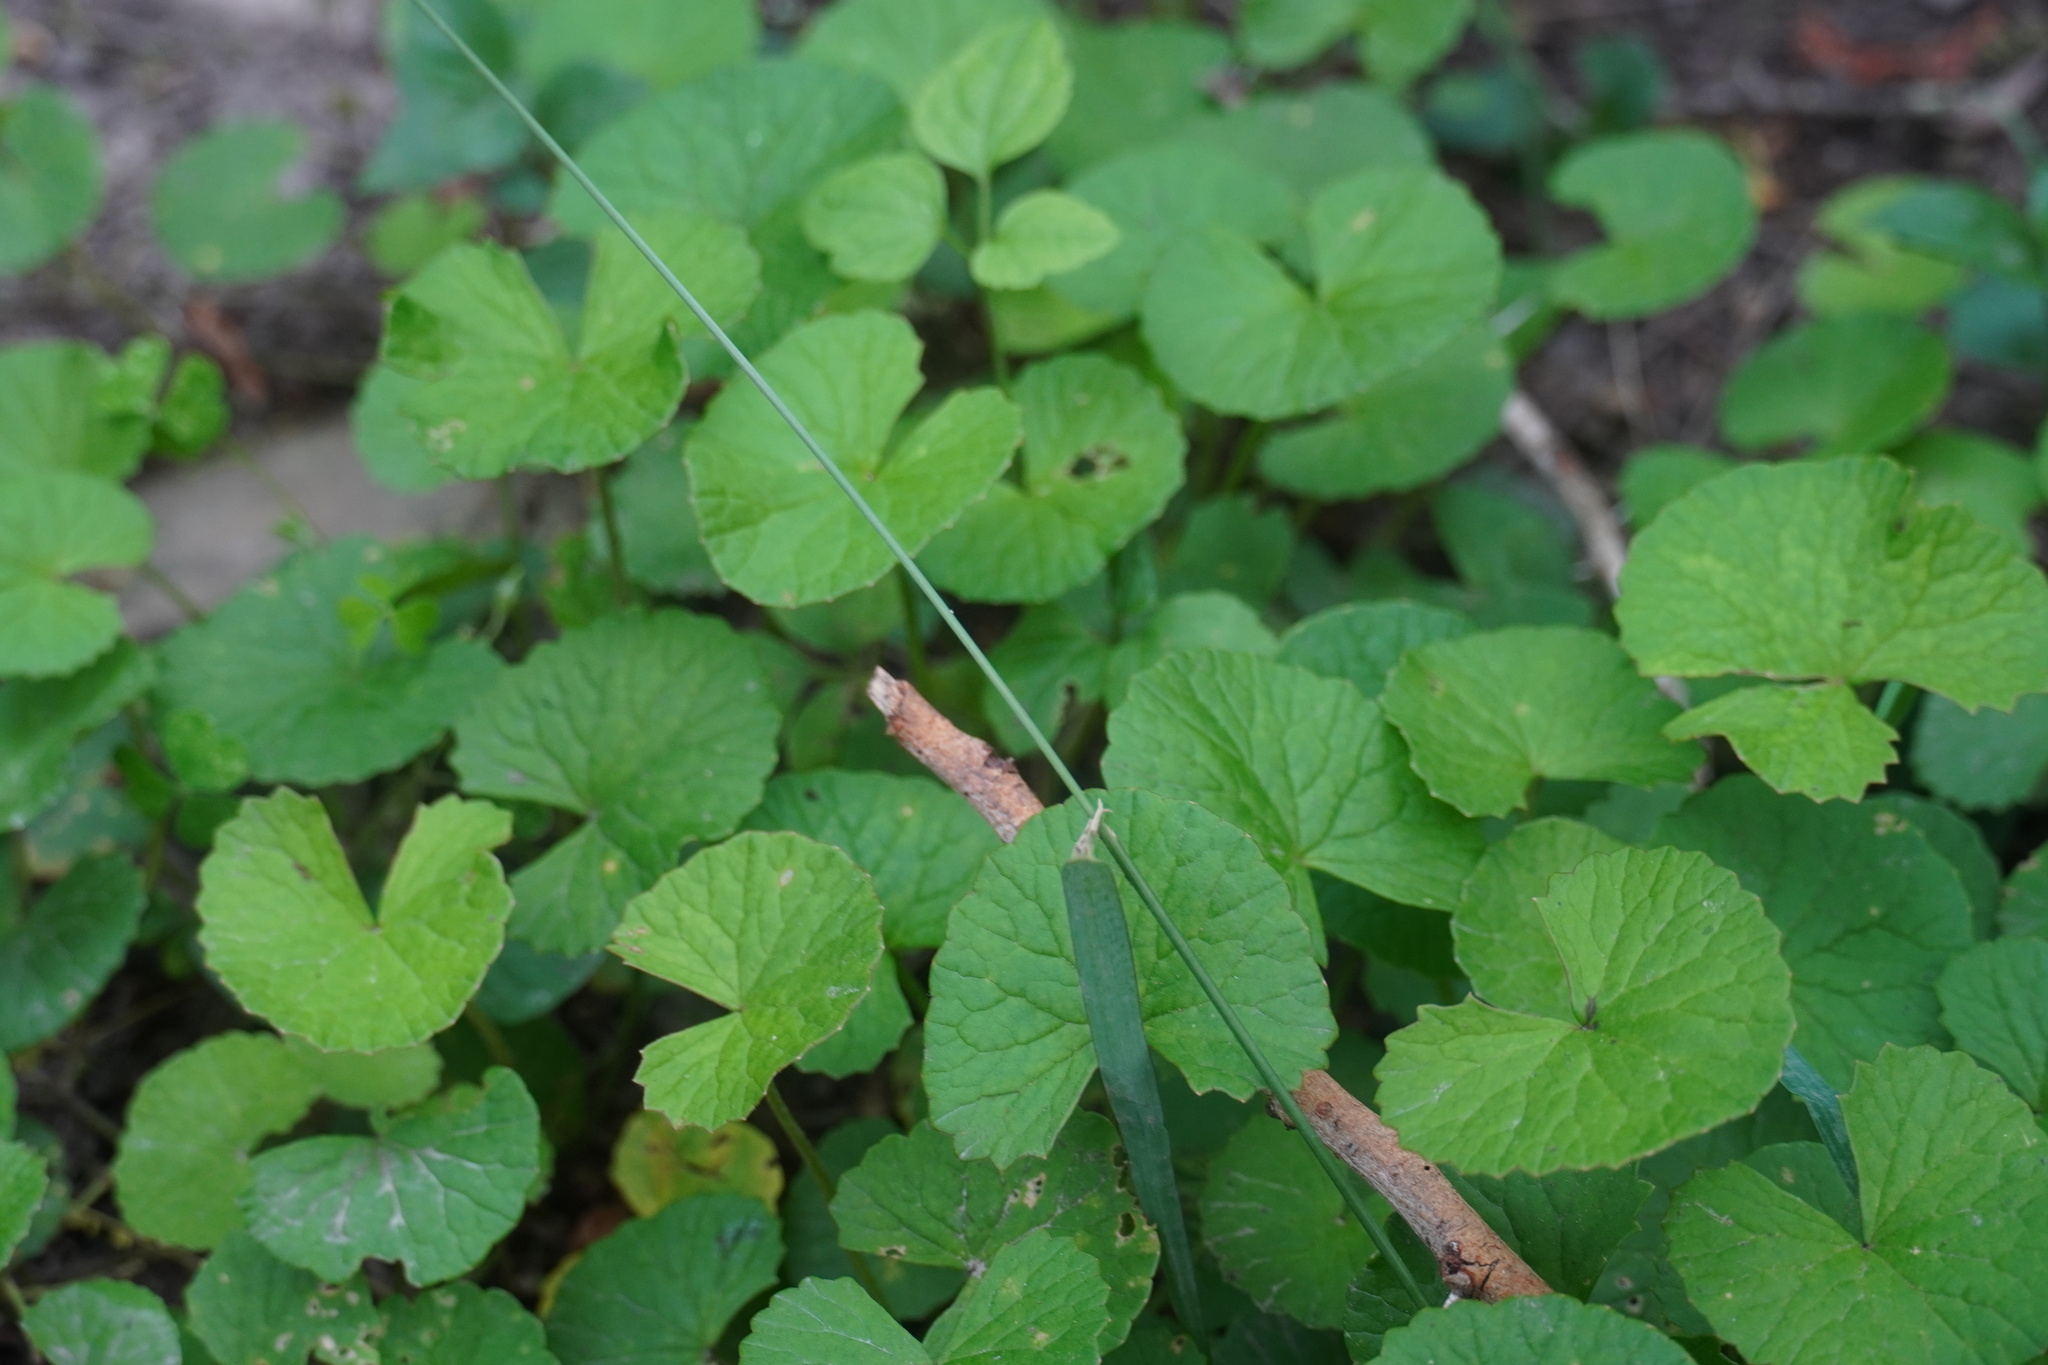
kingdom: Plantae
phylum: Tracheophyta
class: Magnoliopsida
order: Apiales
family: Apiaceae
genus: Centella
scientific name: Centella asiatica
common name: Spadeleaf
